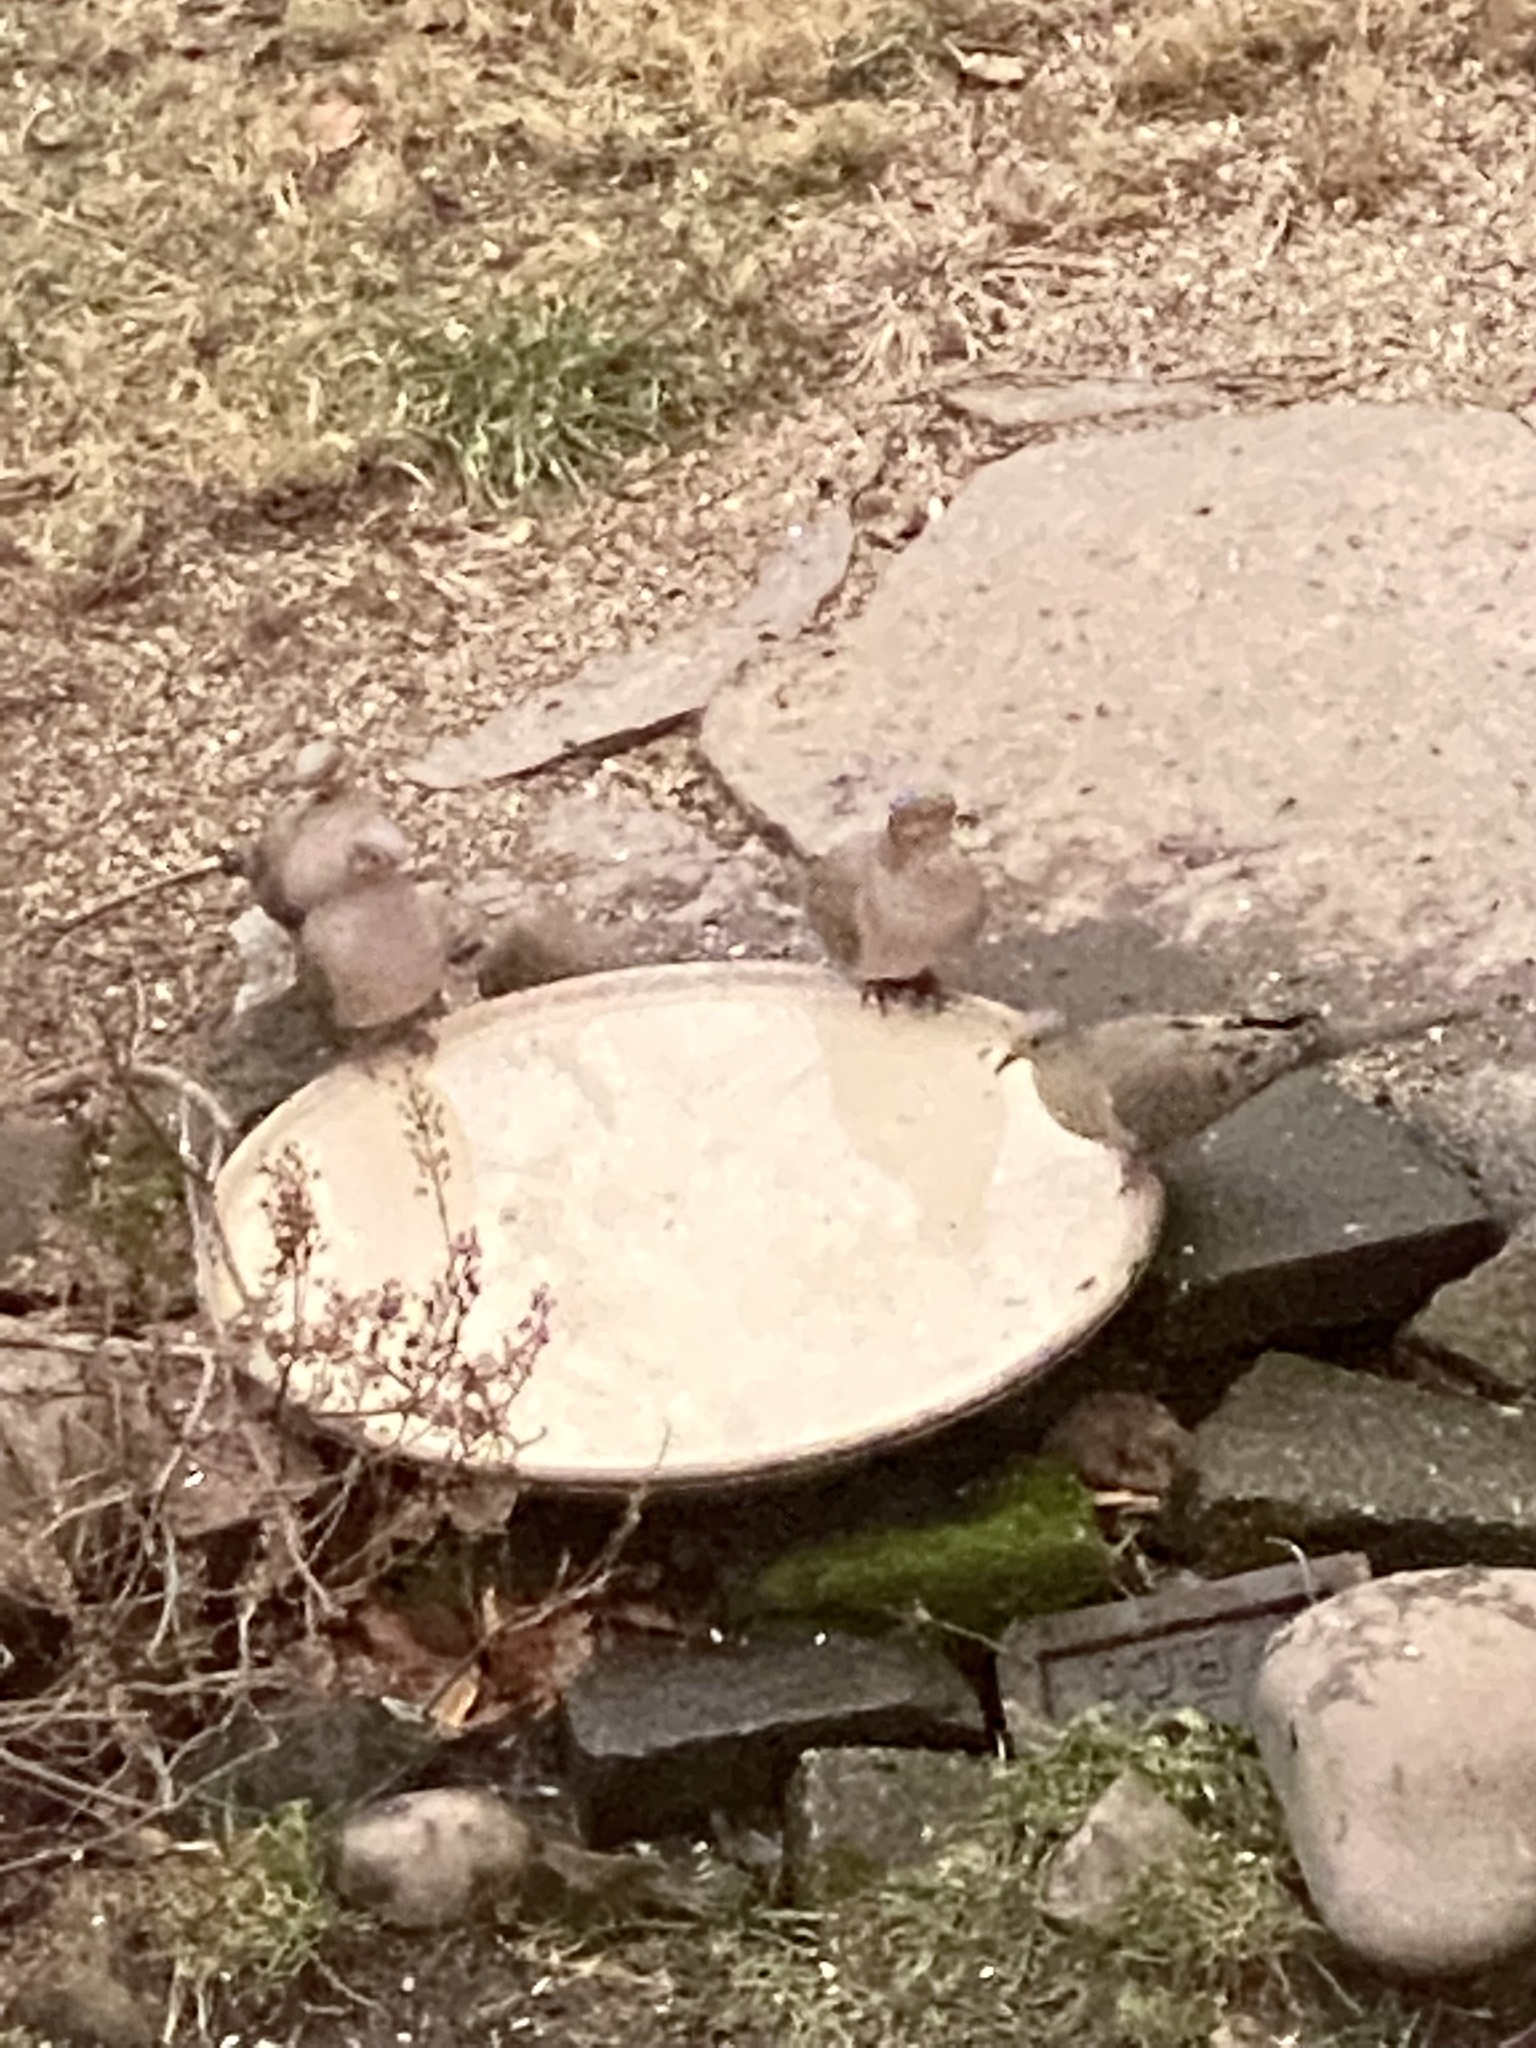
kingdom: Animalia
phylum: Chordata
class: Aves
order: Columbiformes
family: Columbidae
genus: Zenaida
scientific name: Zenaida macroura
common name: Mourning dove
